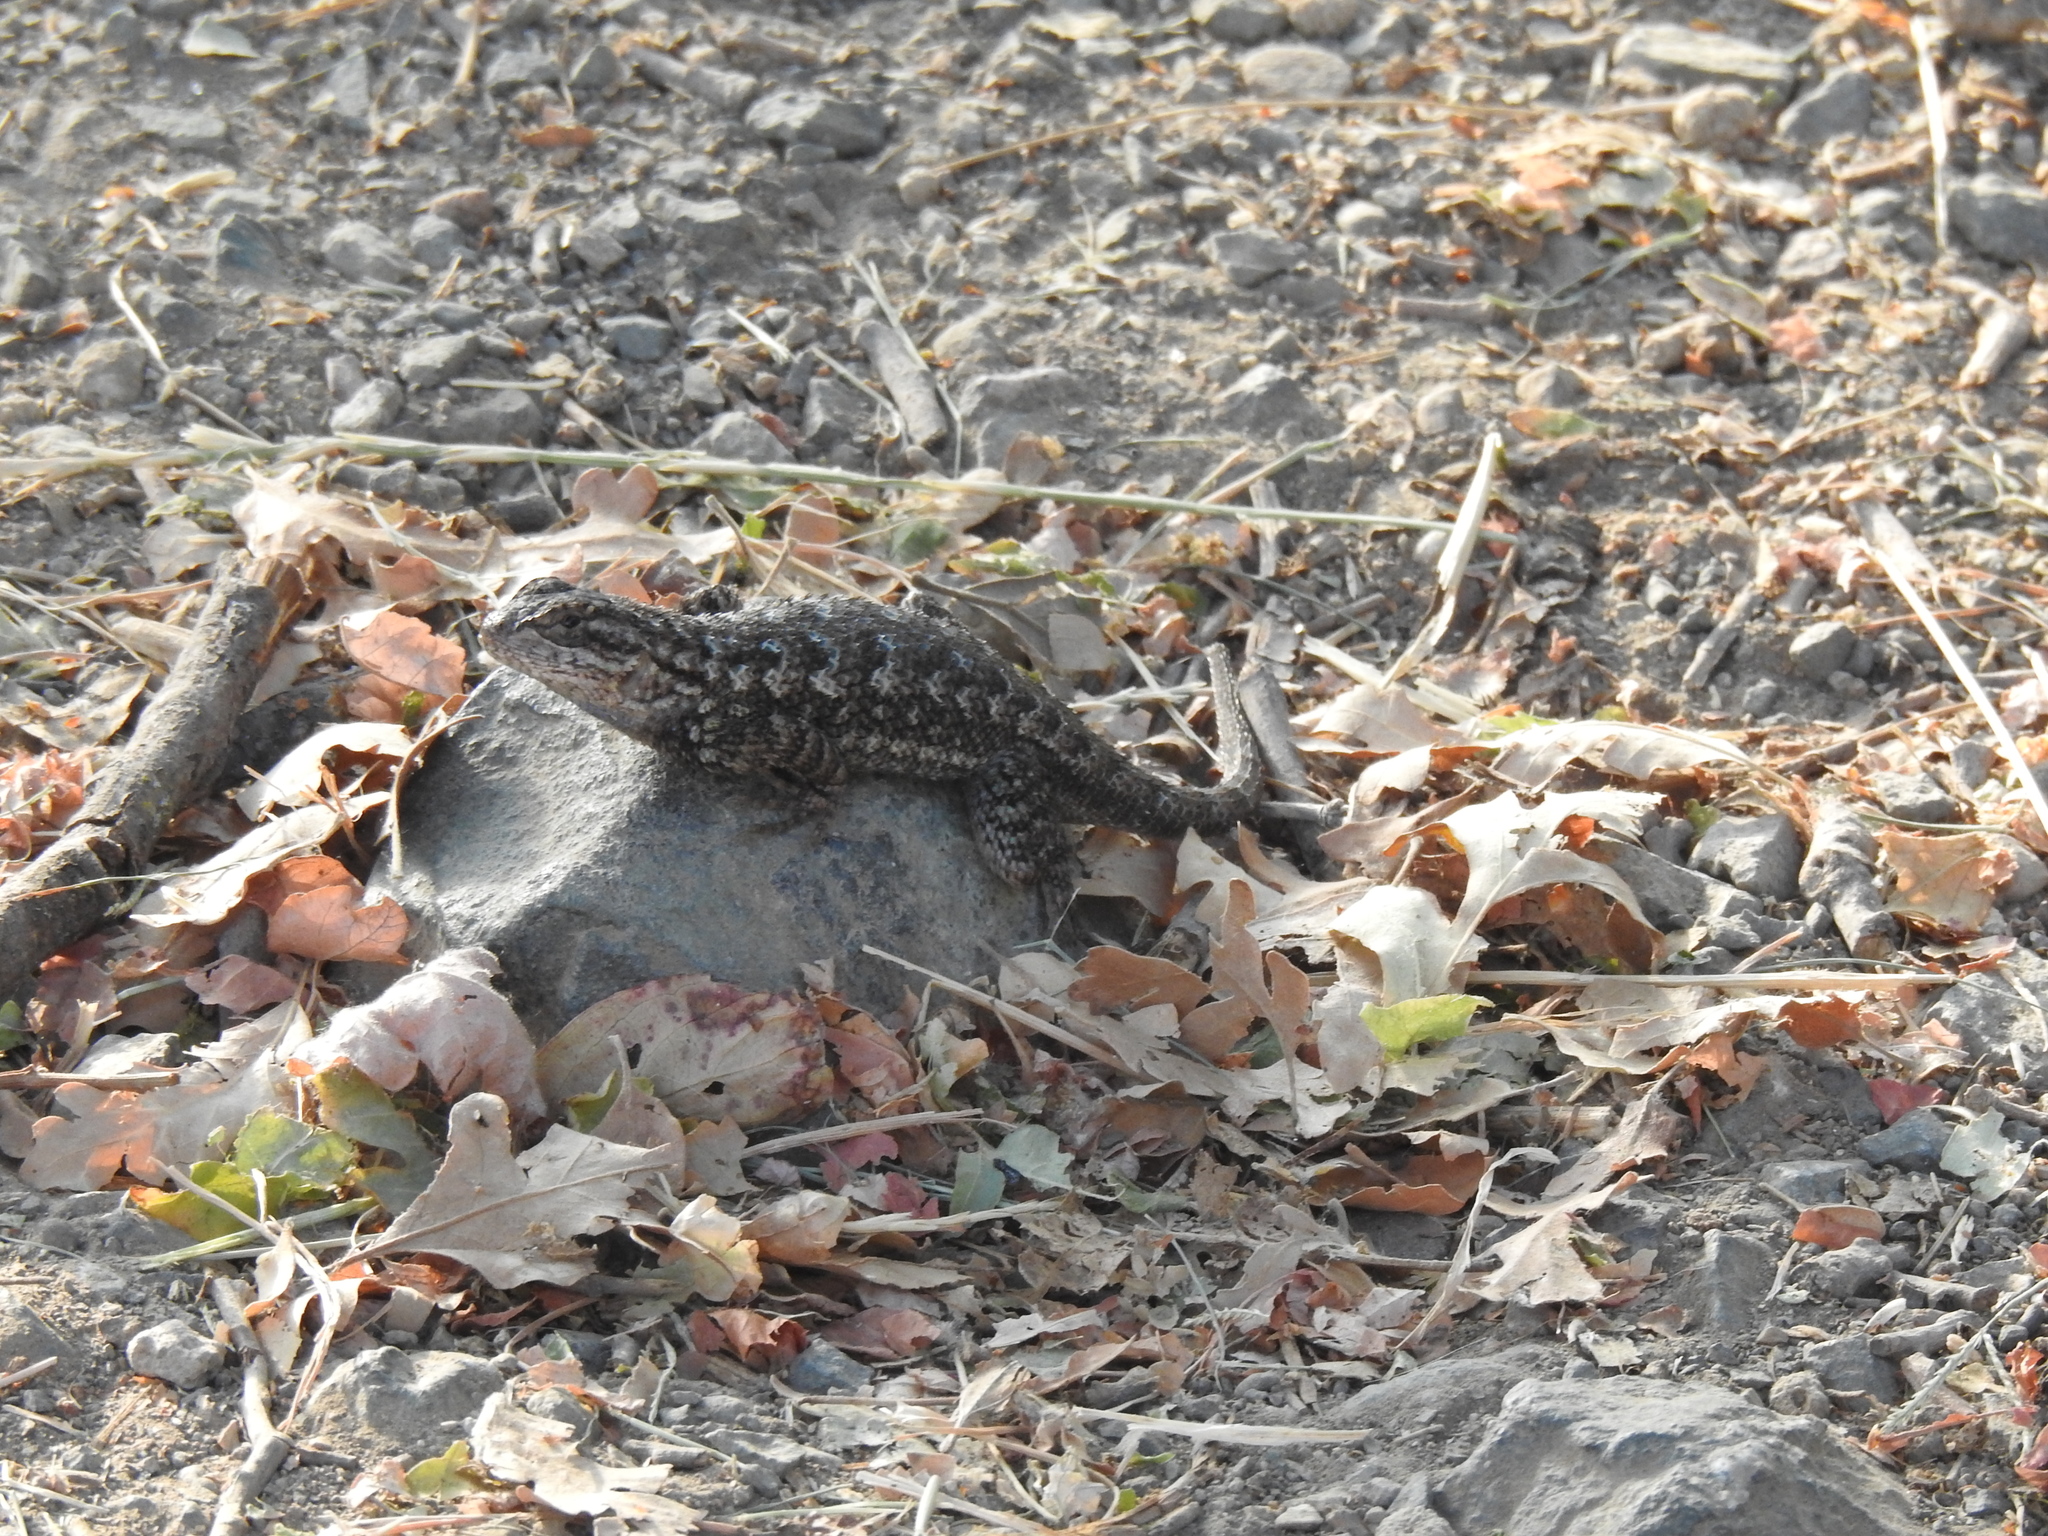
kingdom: Animalia
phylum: Chordata
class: Squamata
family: Phrynosomatidae
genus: Sceloporus
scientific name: Sceloporus occidentalis
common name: Western fence lizard
